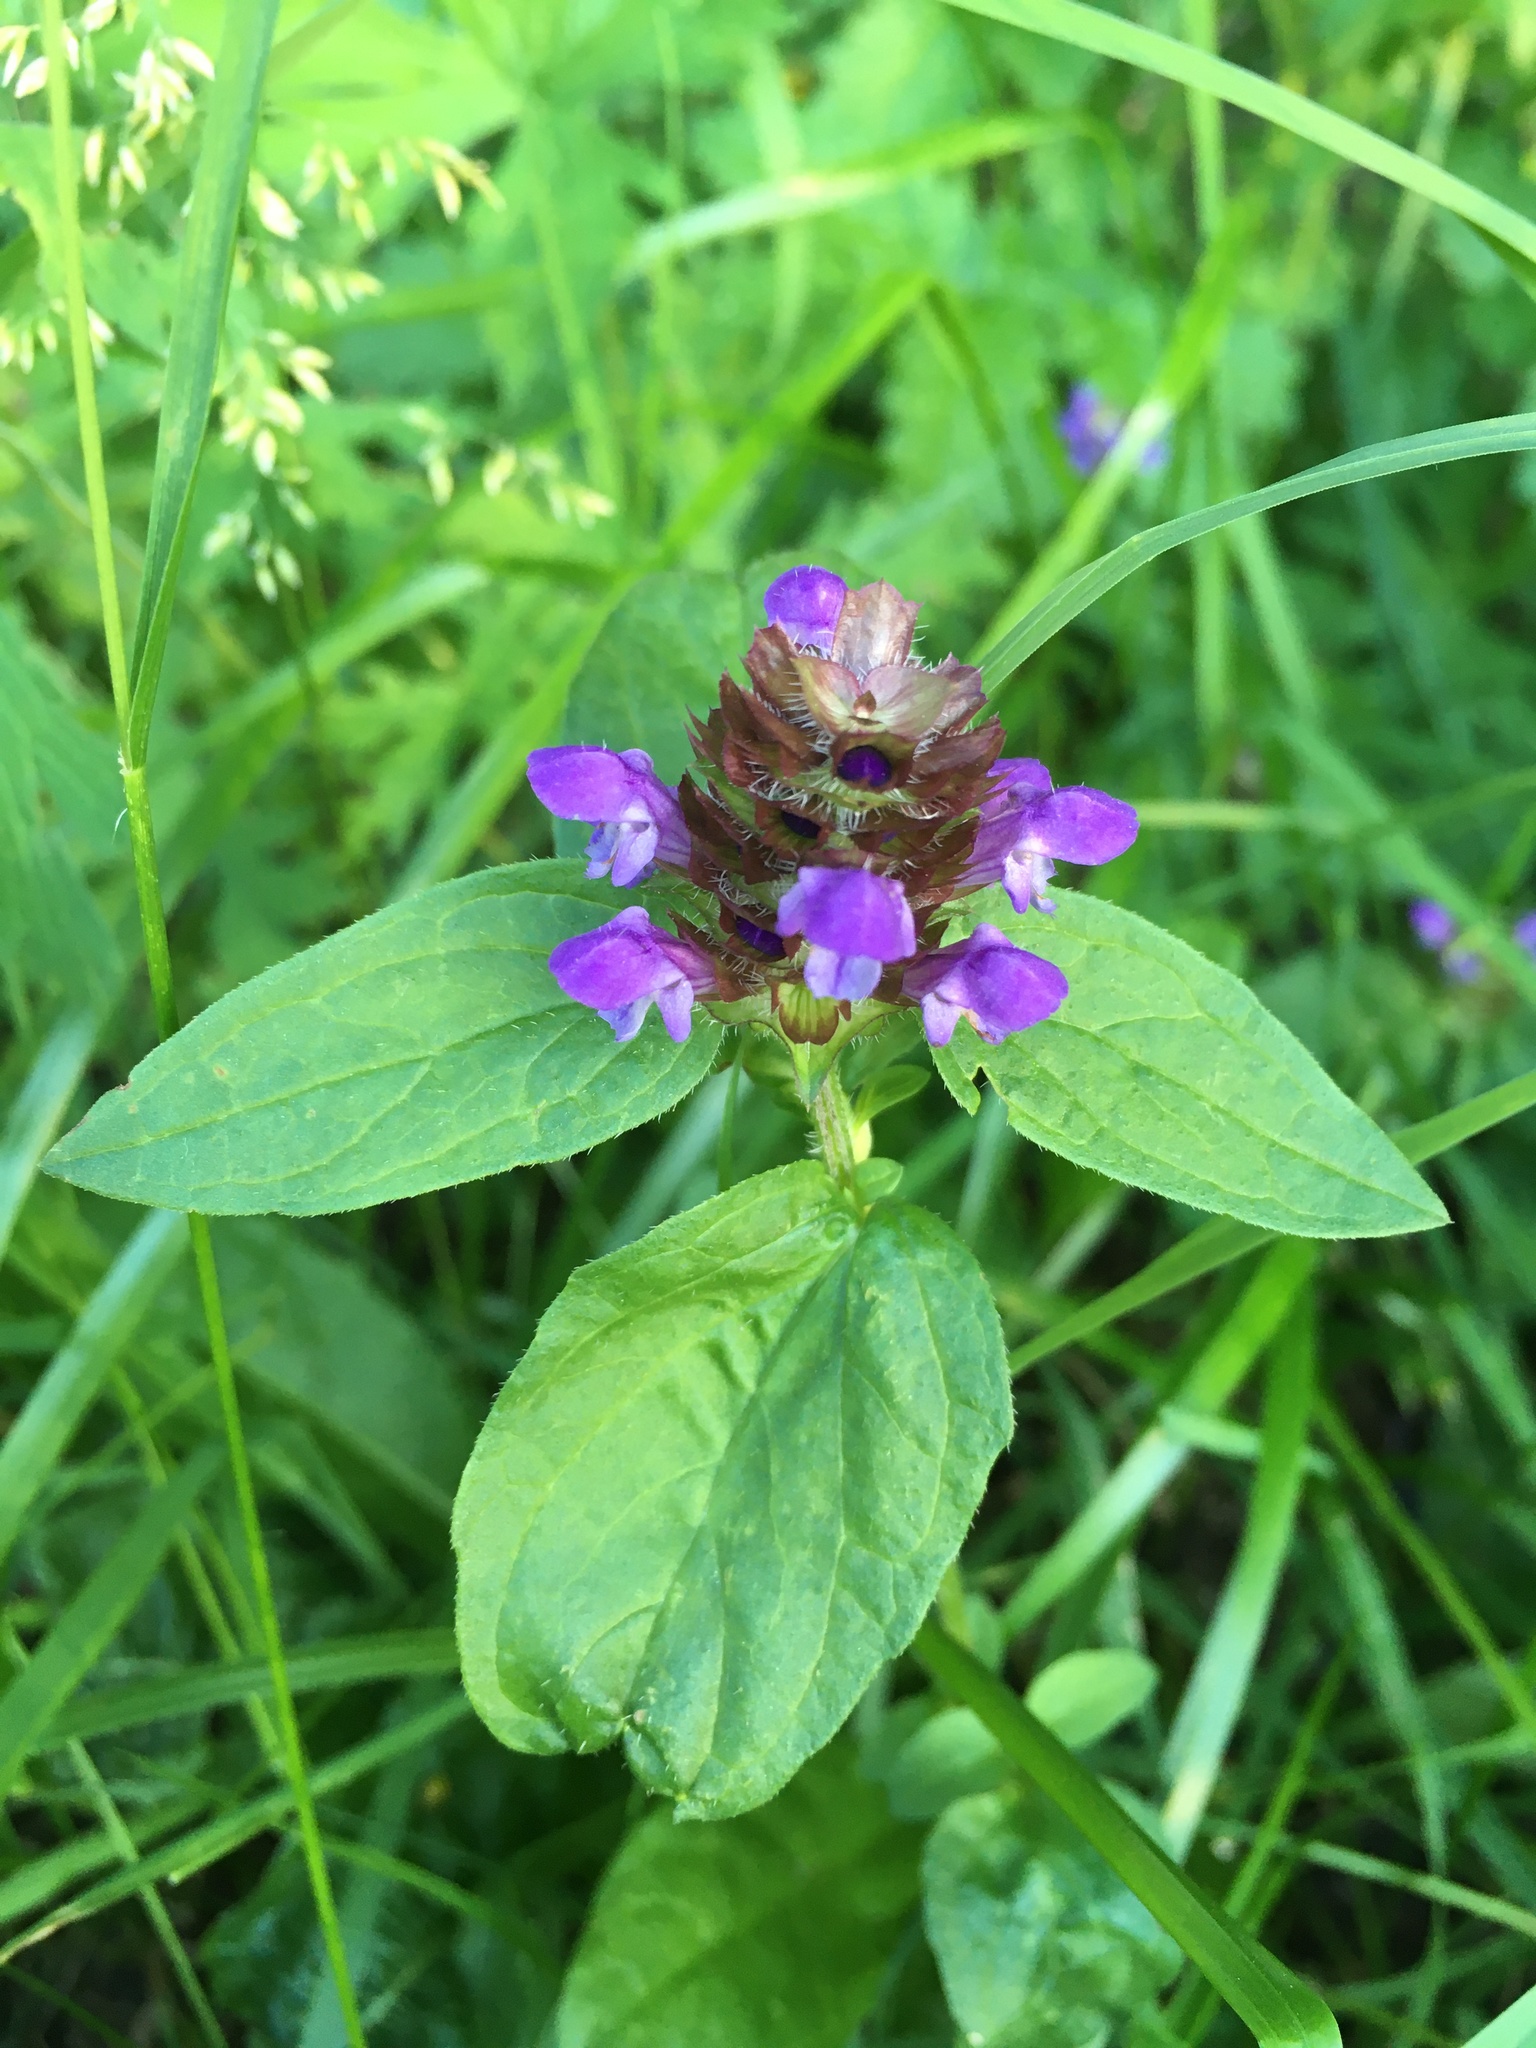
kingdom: Plantae
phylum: Tracheophyta
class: Magnoliopsida
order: Lamiales
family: Lamiaceae
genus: Prunella
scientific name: Prunella vulgaris
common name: Heal-all
